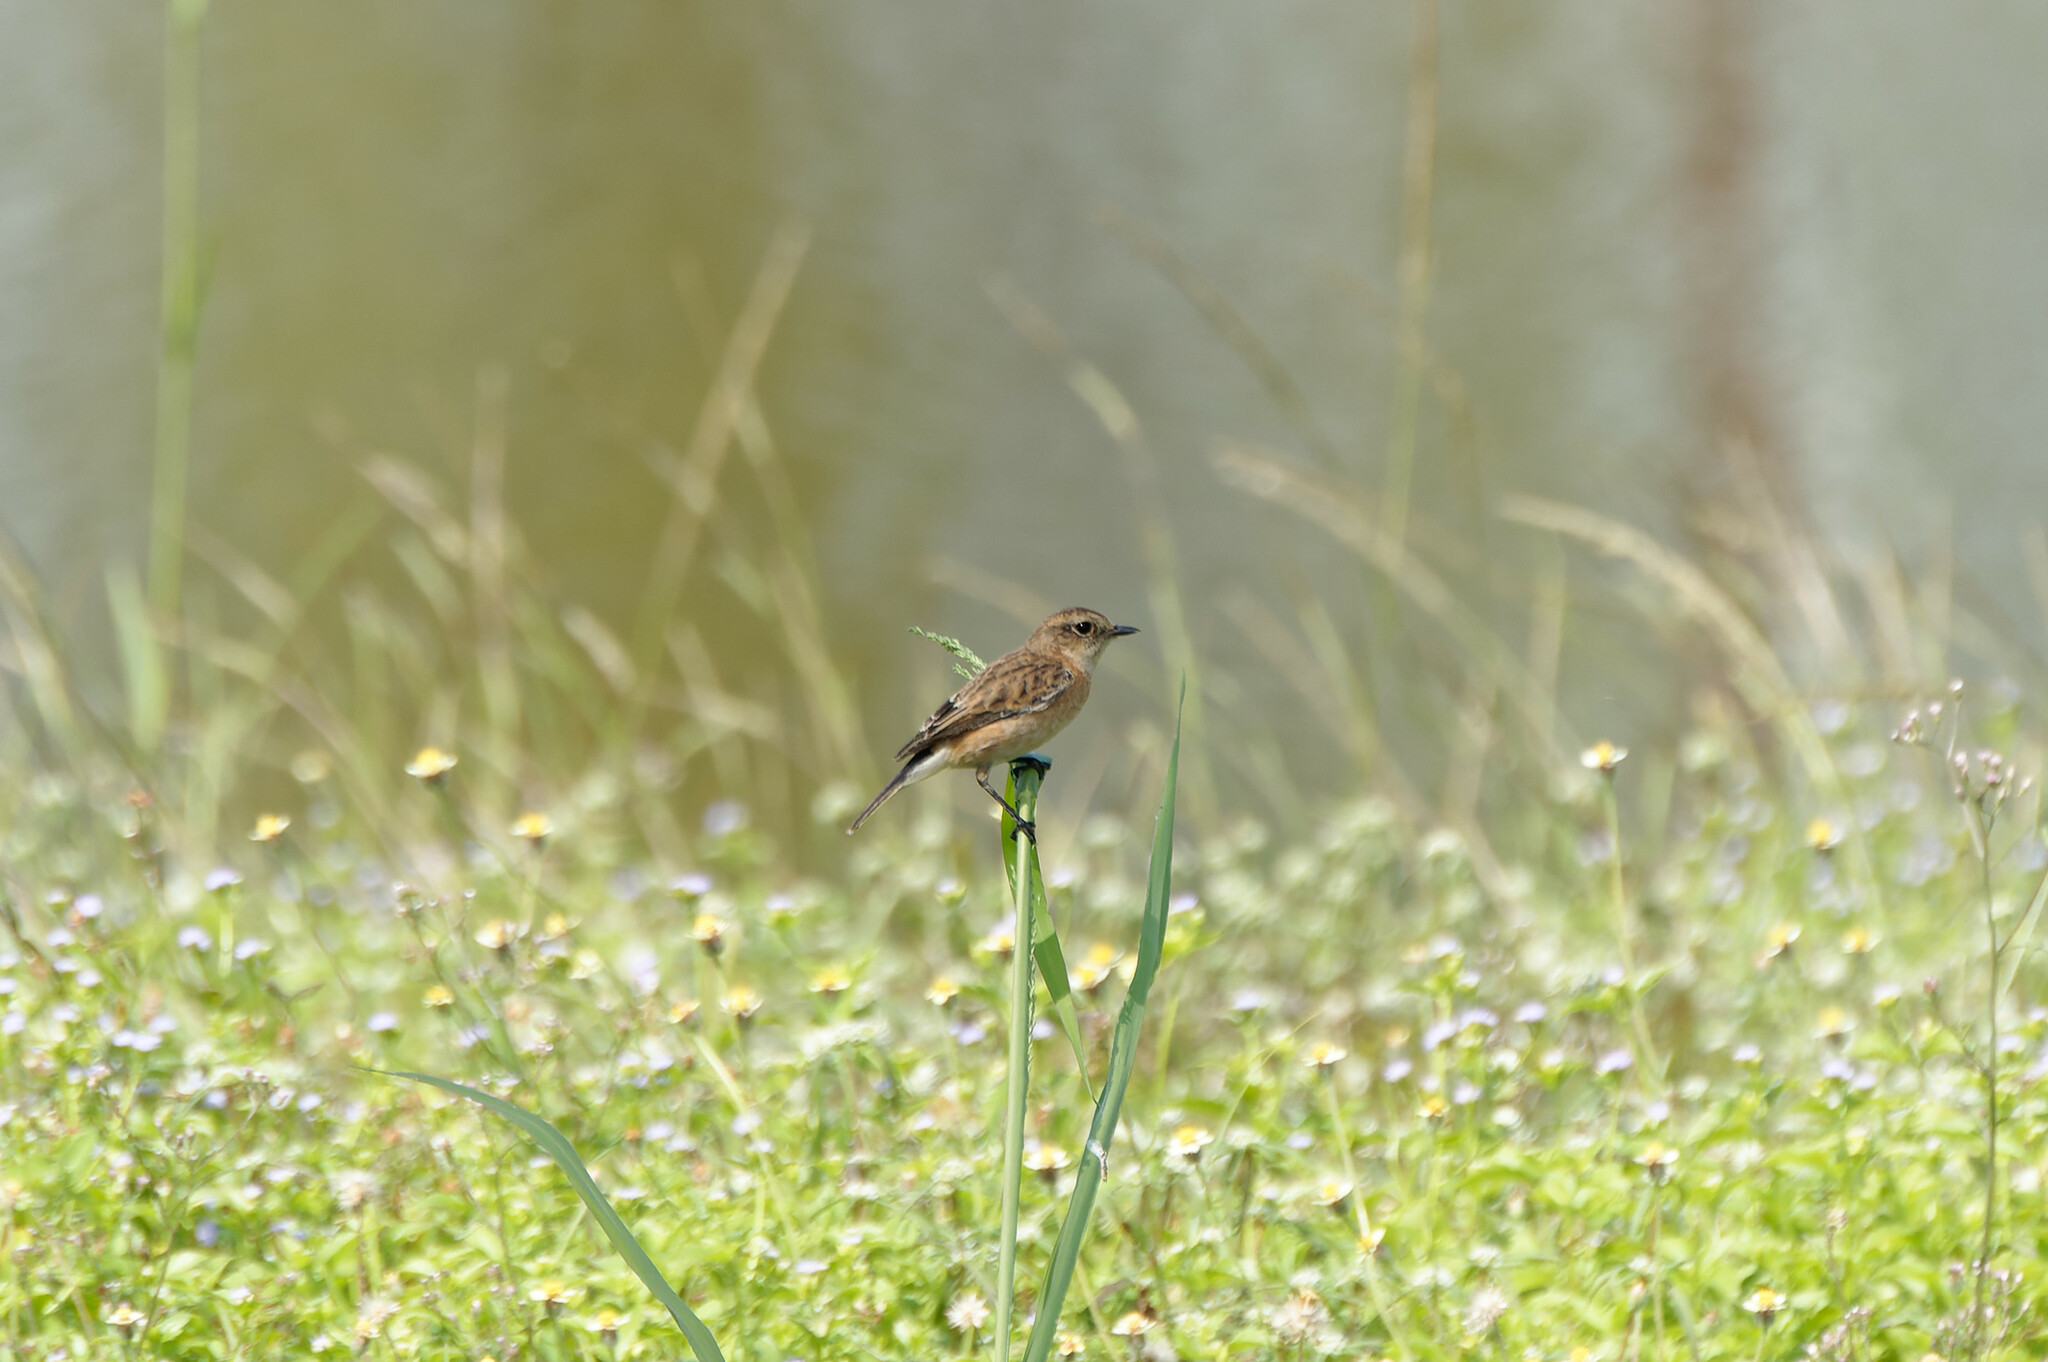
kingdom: Animalia
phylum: Chordata
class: Aves
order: Passeriformes
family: Muscicapidae
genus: Saxicola
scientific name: Saxicola stejnegeri
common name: Stejneger's stonechat
